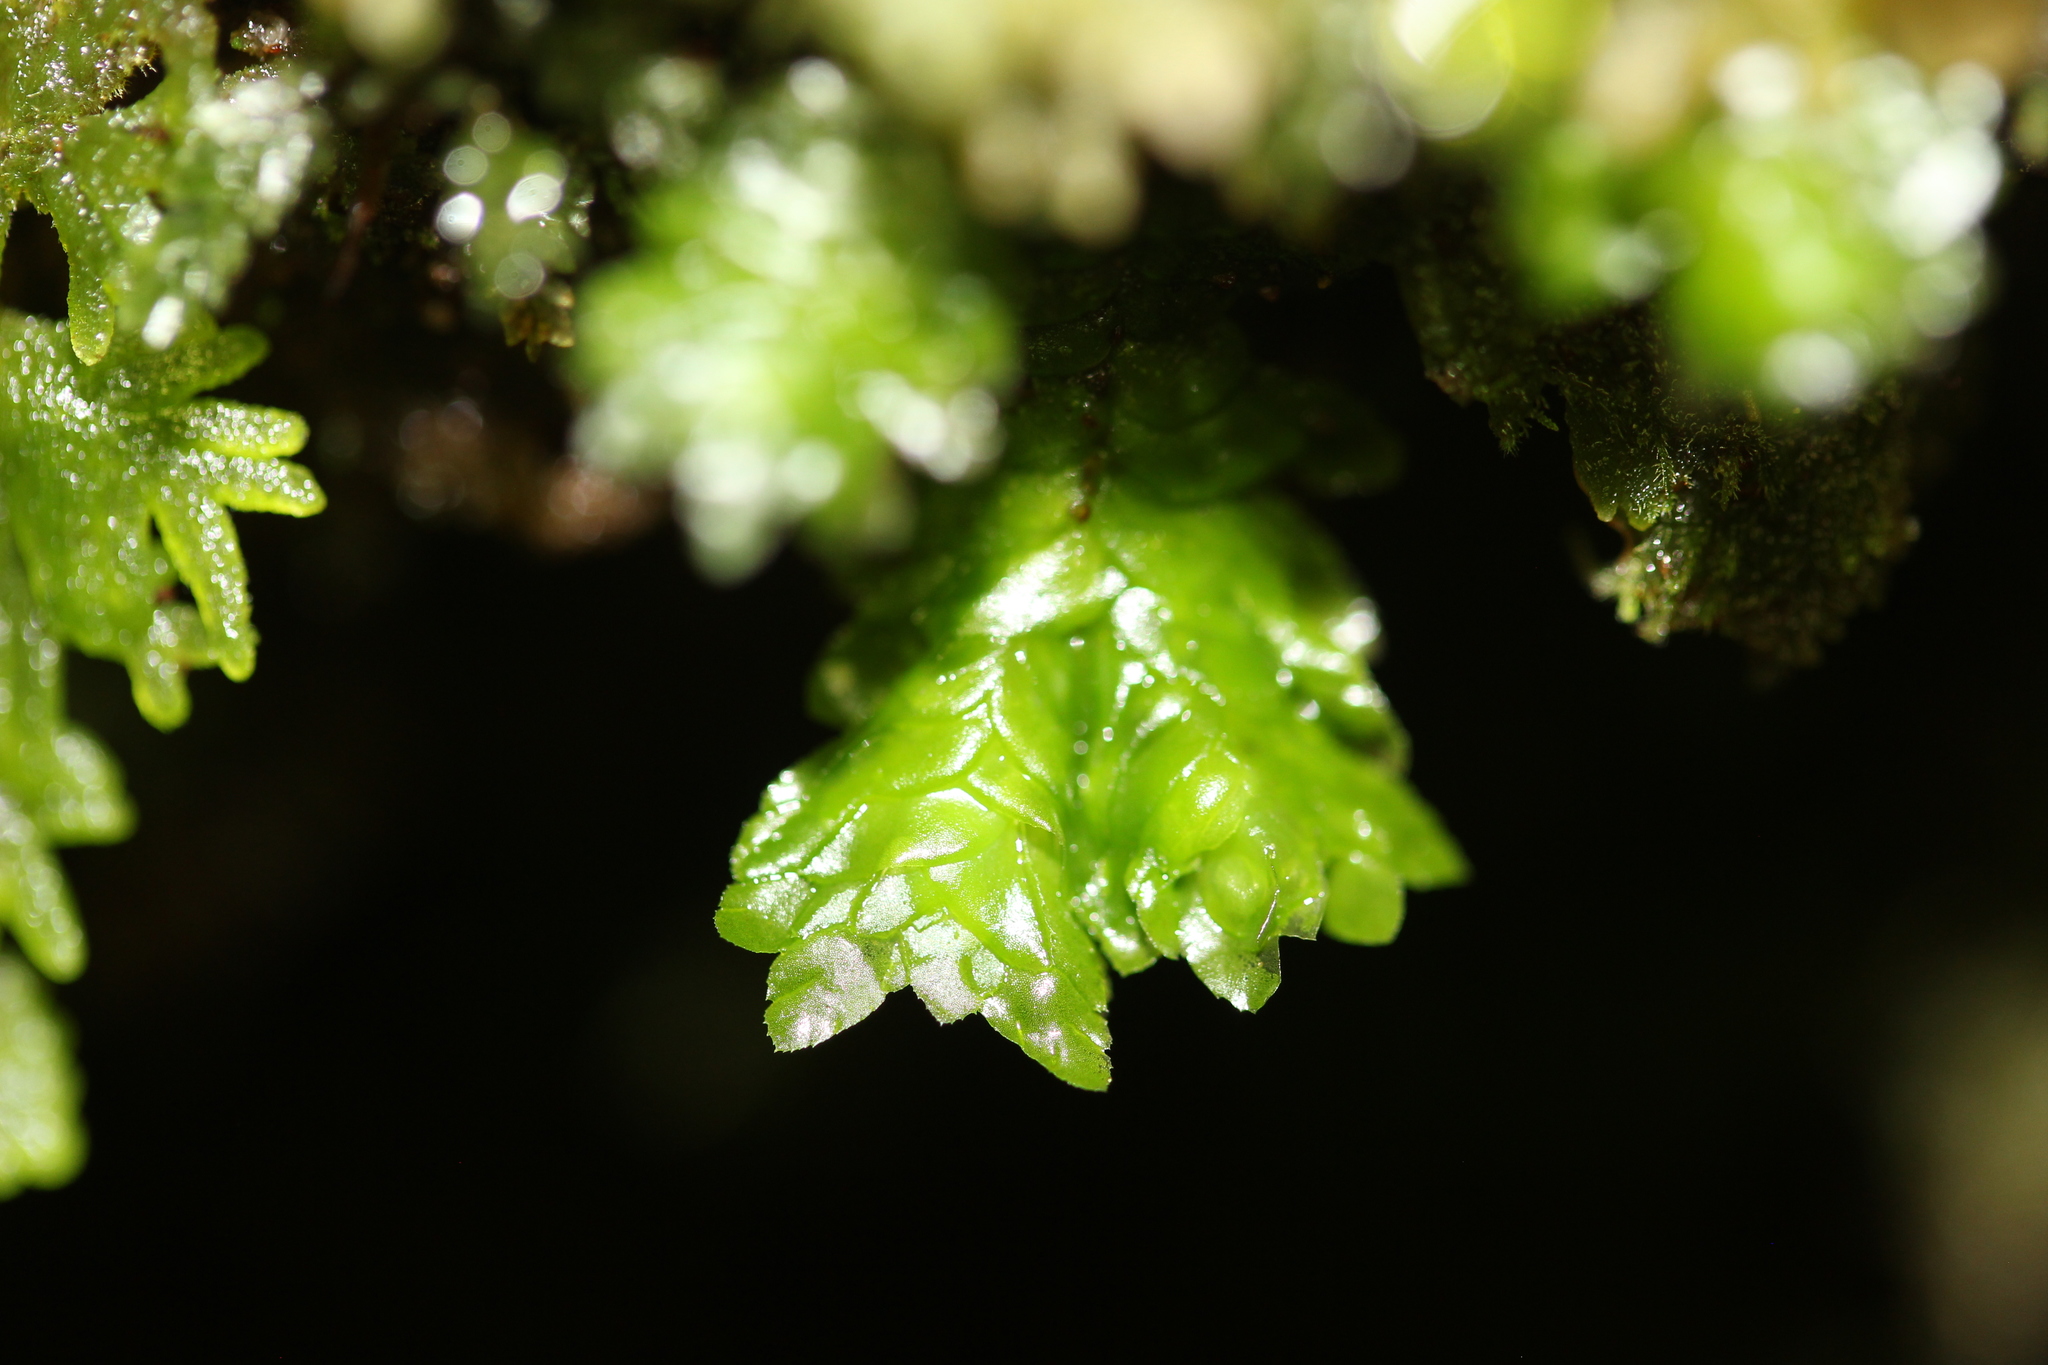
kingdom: Plantae
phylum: Marchantiophyta
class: Jungermanniopsida
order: Jungermanniales
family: Schistochilaceae
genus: Schistochila
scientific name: Schistochila repleta
